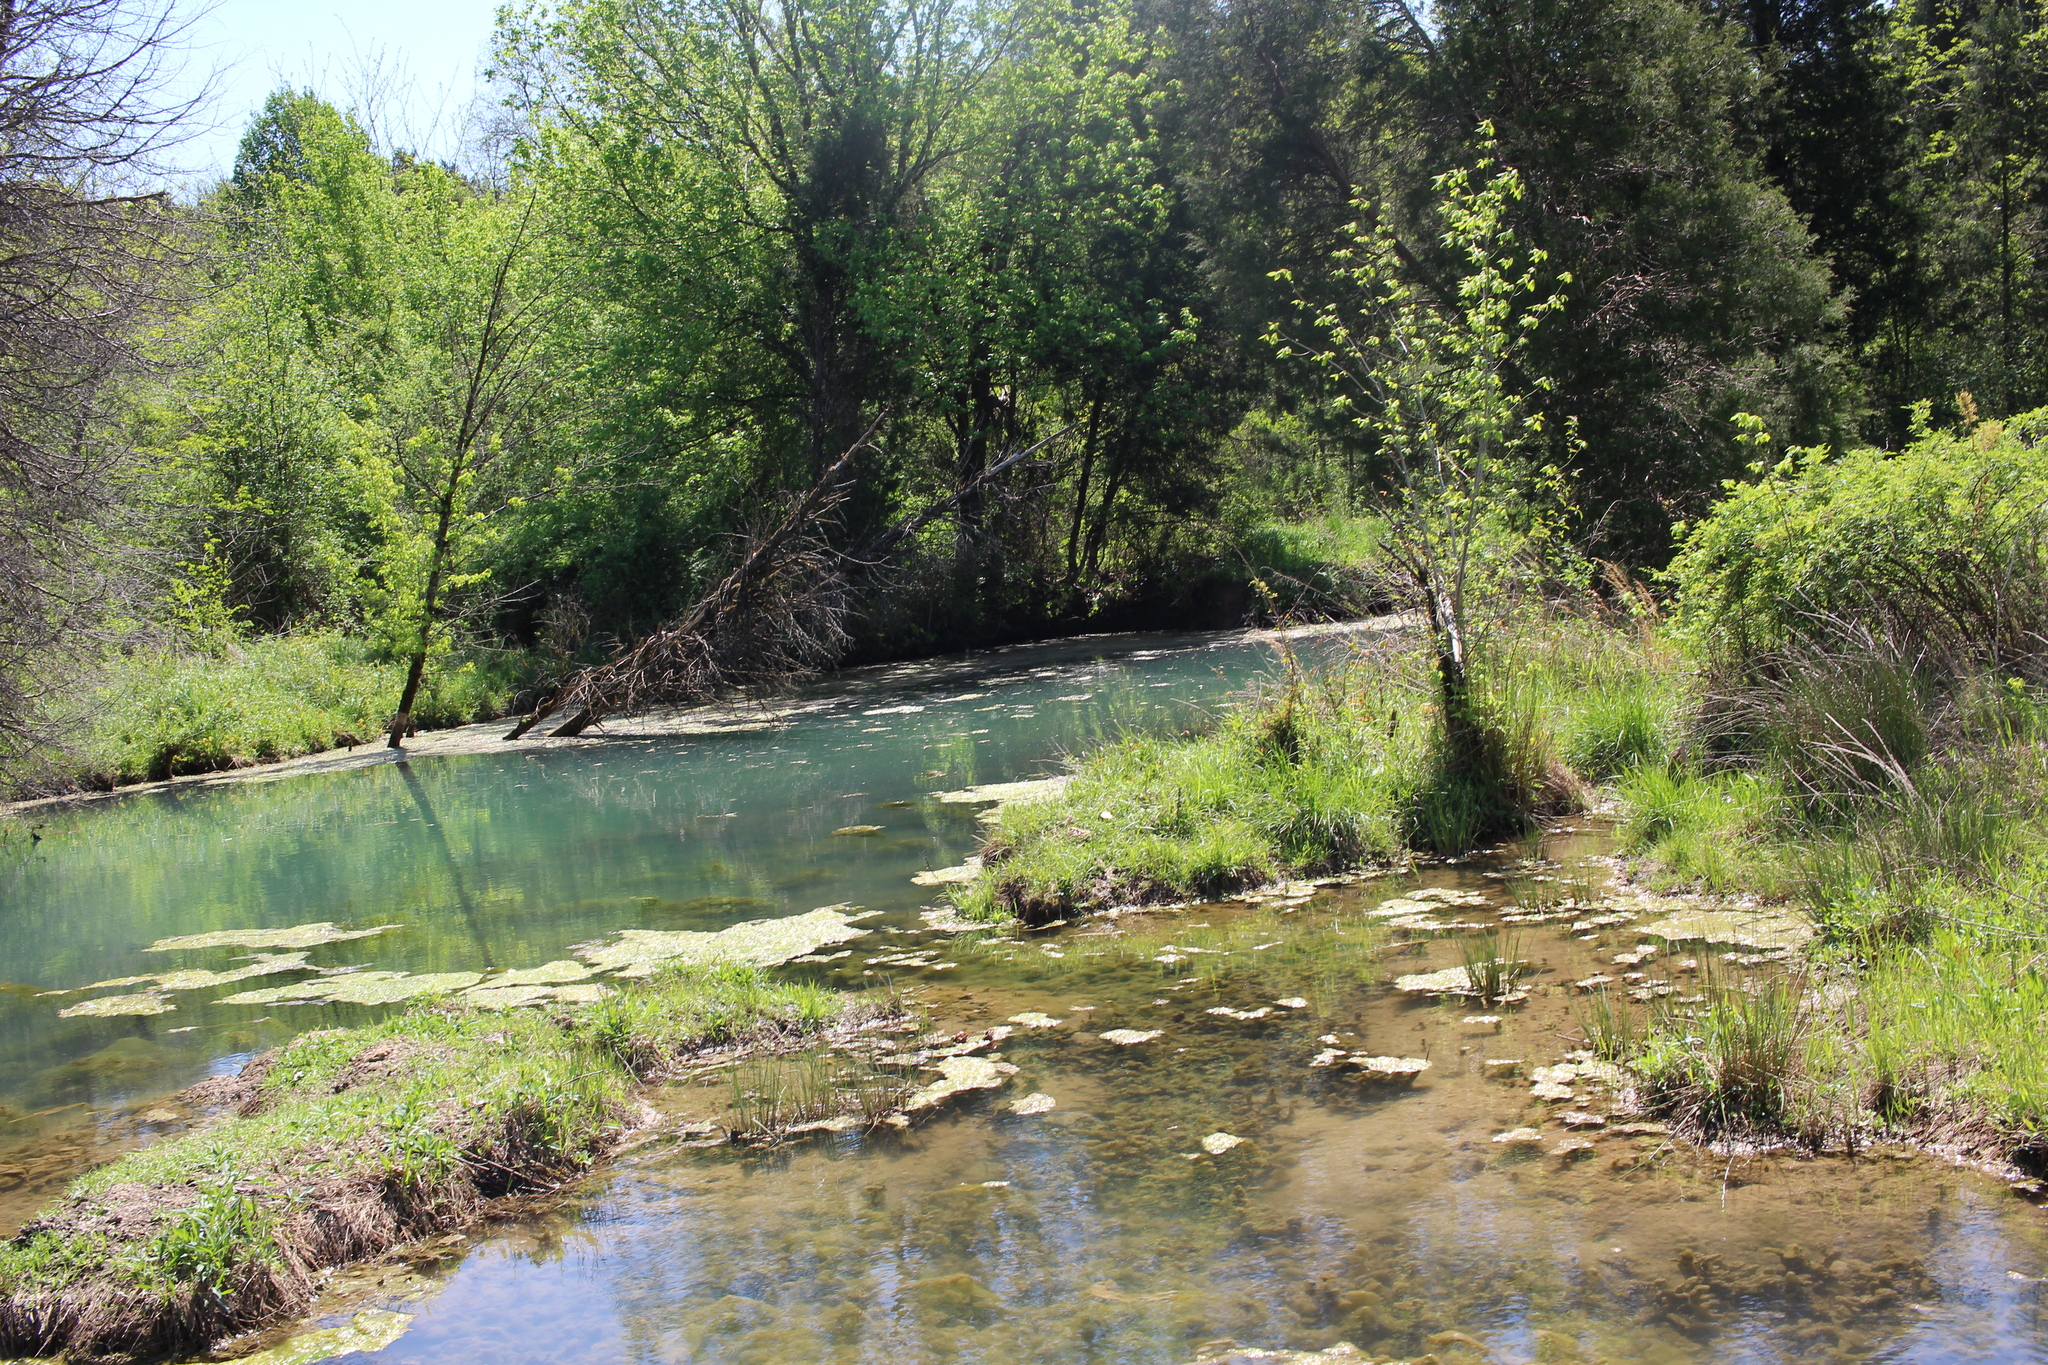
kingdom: Animalia
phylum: Chordata
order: Cyprinodontiformes
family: Poeciliidae
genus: Gambusia
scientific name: Gambusia affinis
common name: Mosquitofish
